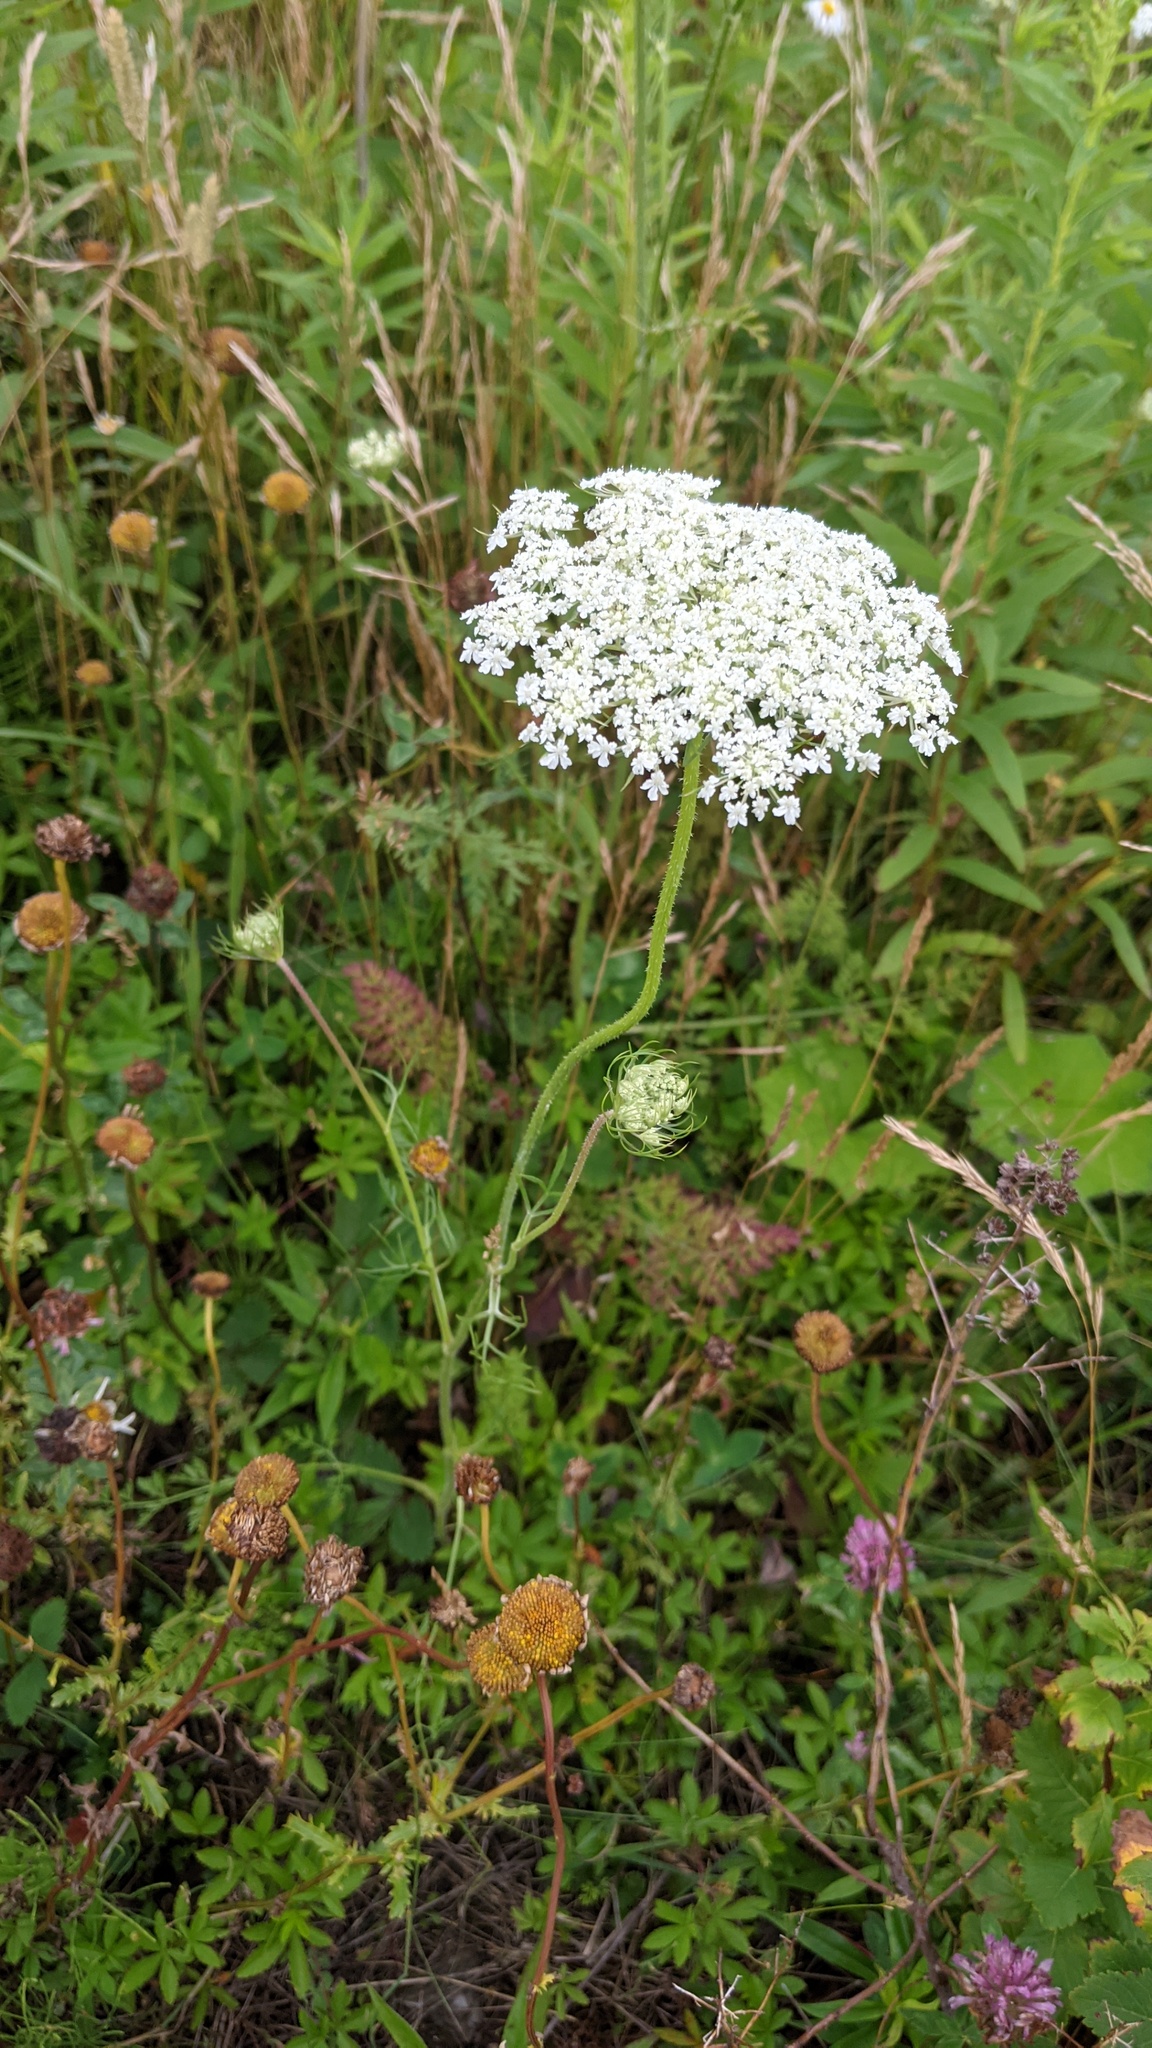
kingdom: Plantae
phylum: Tracheophyta
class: Magnoliopsida
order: Apiales
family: Apiaceae
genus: Daucus
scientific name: Daucus carota
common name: Wild carrot
